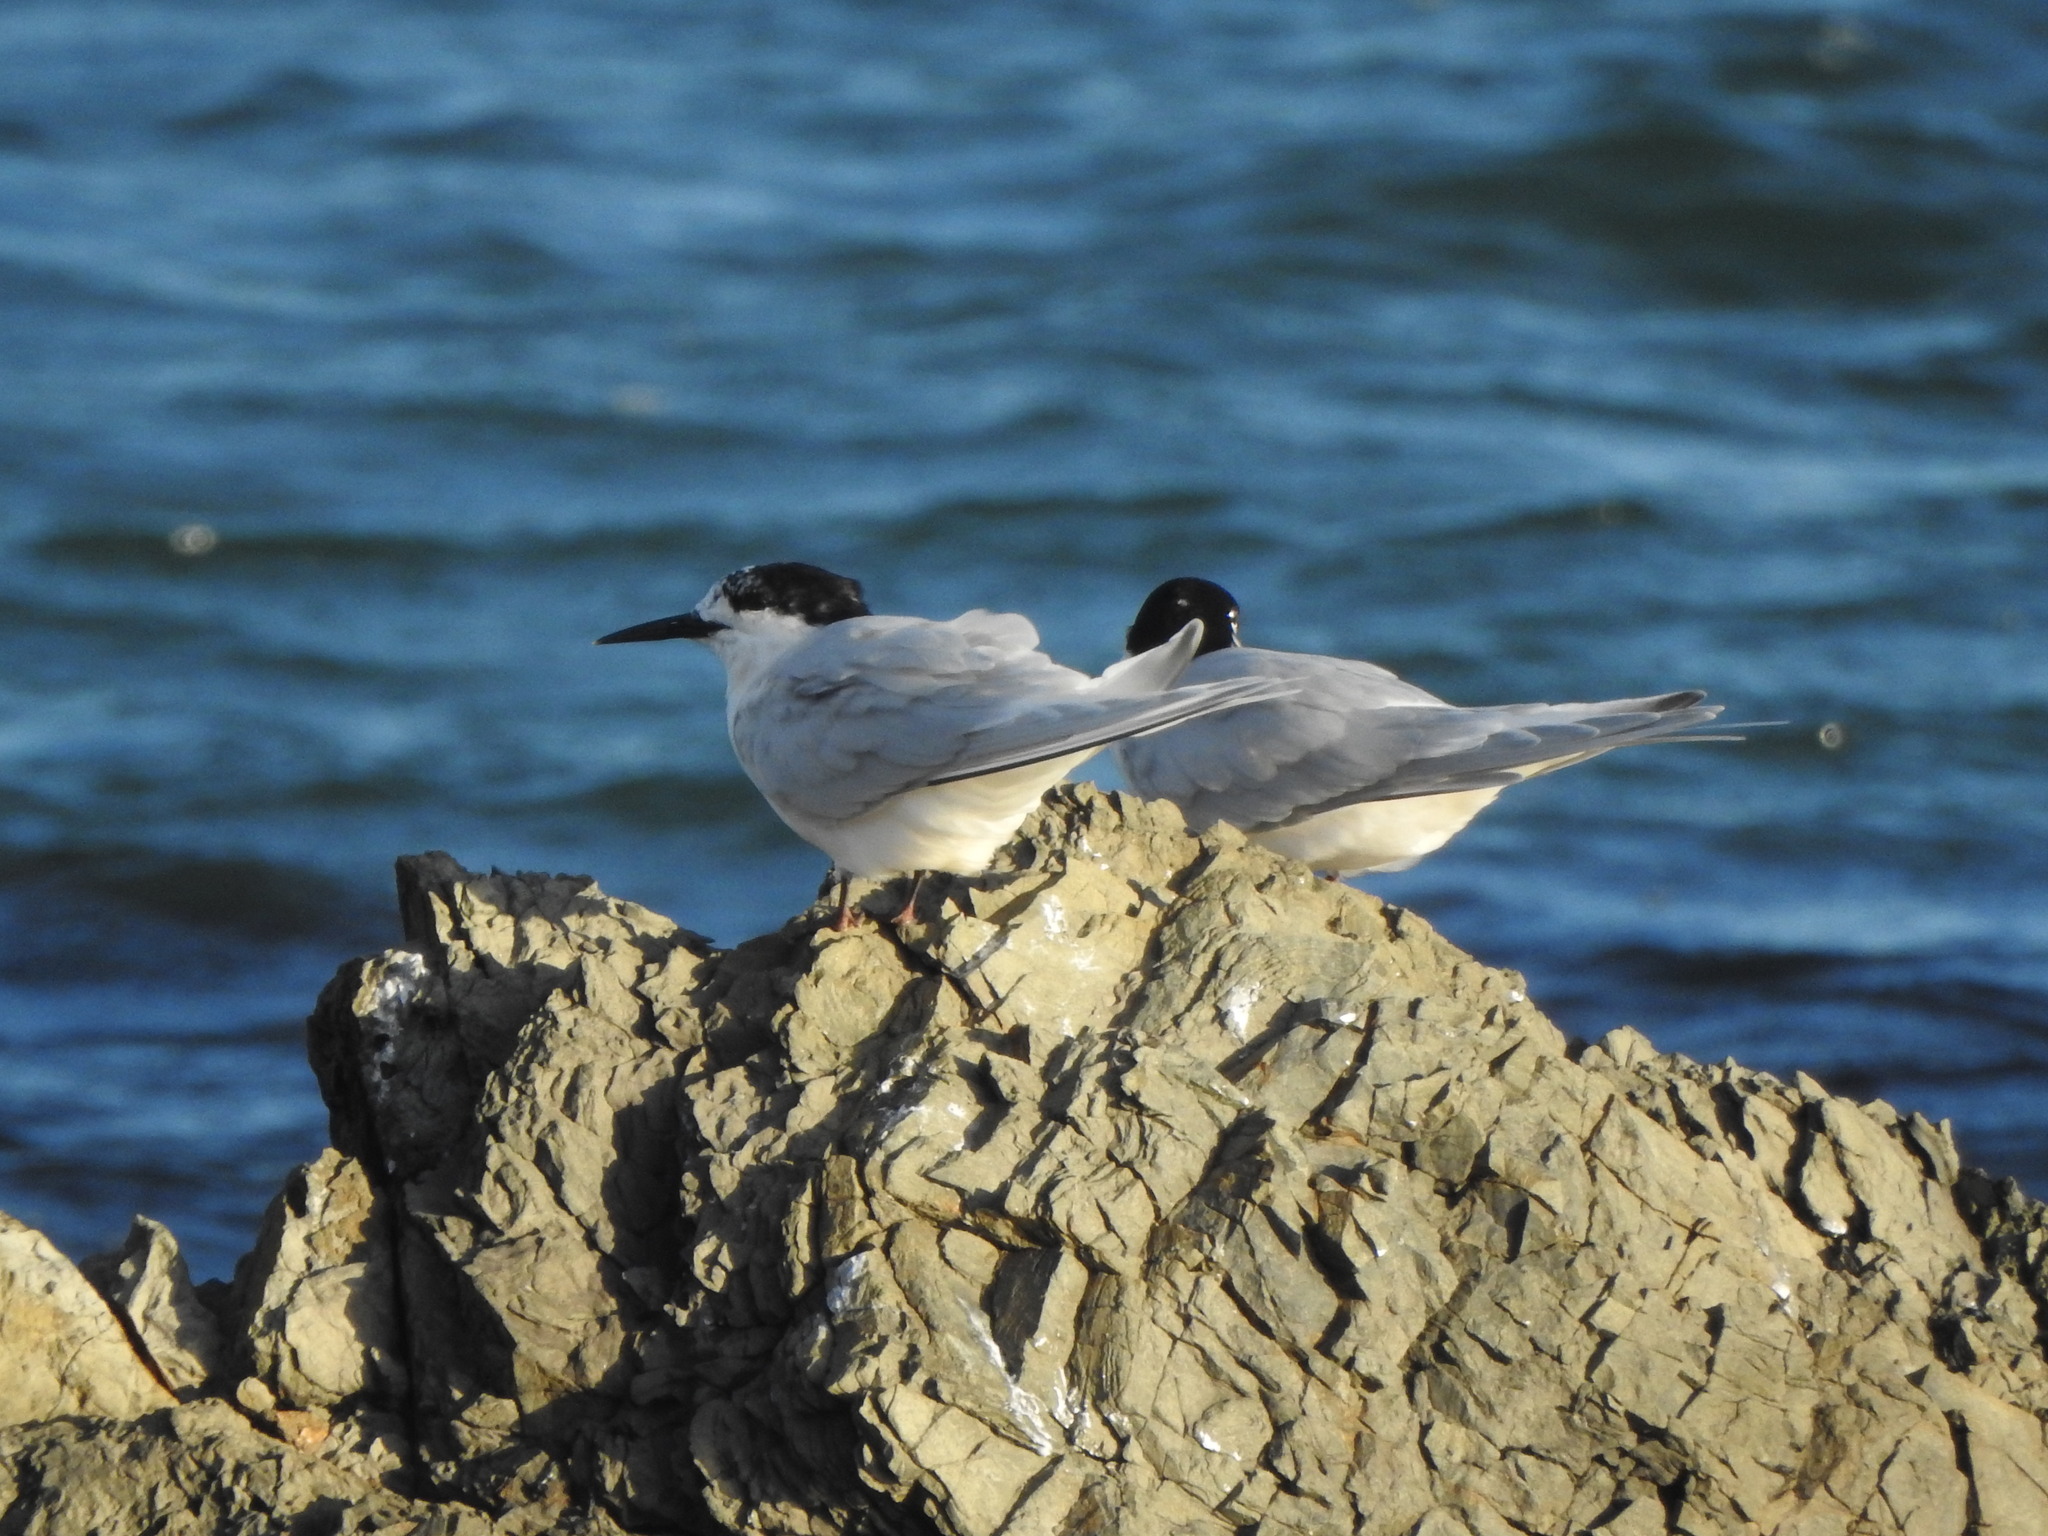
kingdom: Animalia
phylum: Chordata
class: Aves
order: Charadriiformes
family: Laridae
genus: Sterna
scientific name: Sterna striata
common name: White-fronted tern
